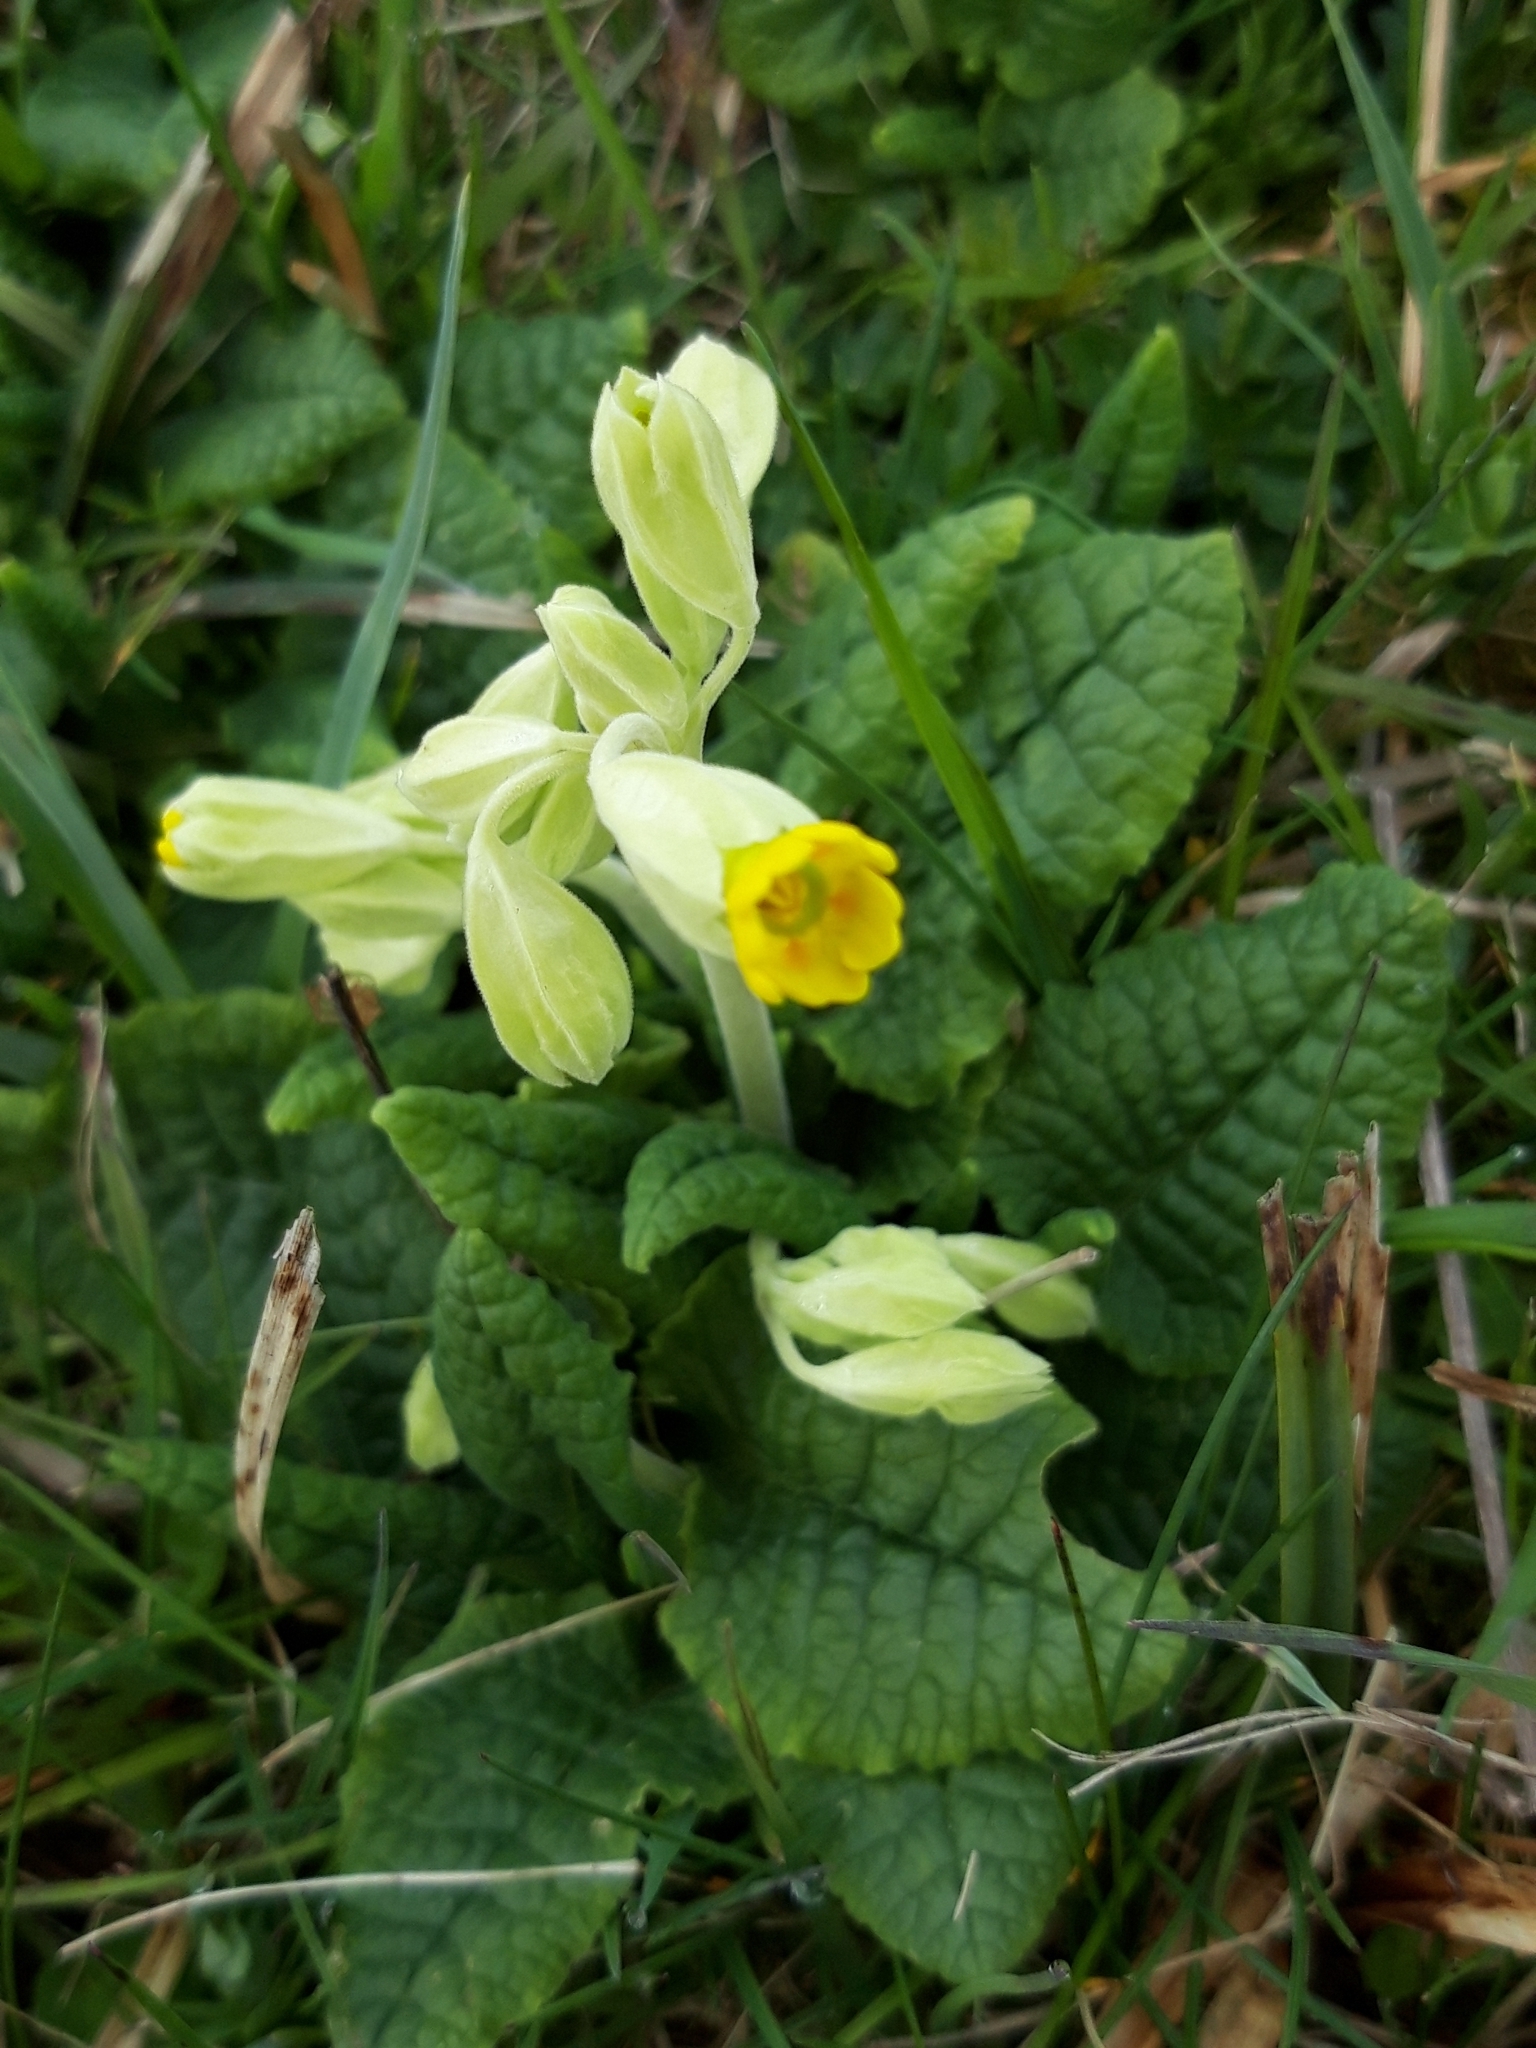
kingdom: Plantae
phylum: Tracheophyta
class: Magnoliopsida
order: Ericales
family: Primulaceae
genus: Primula
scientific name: Primula veris
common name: Cowslip
